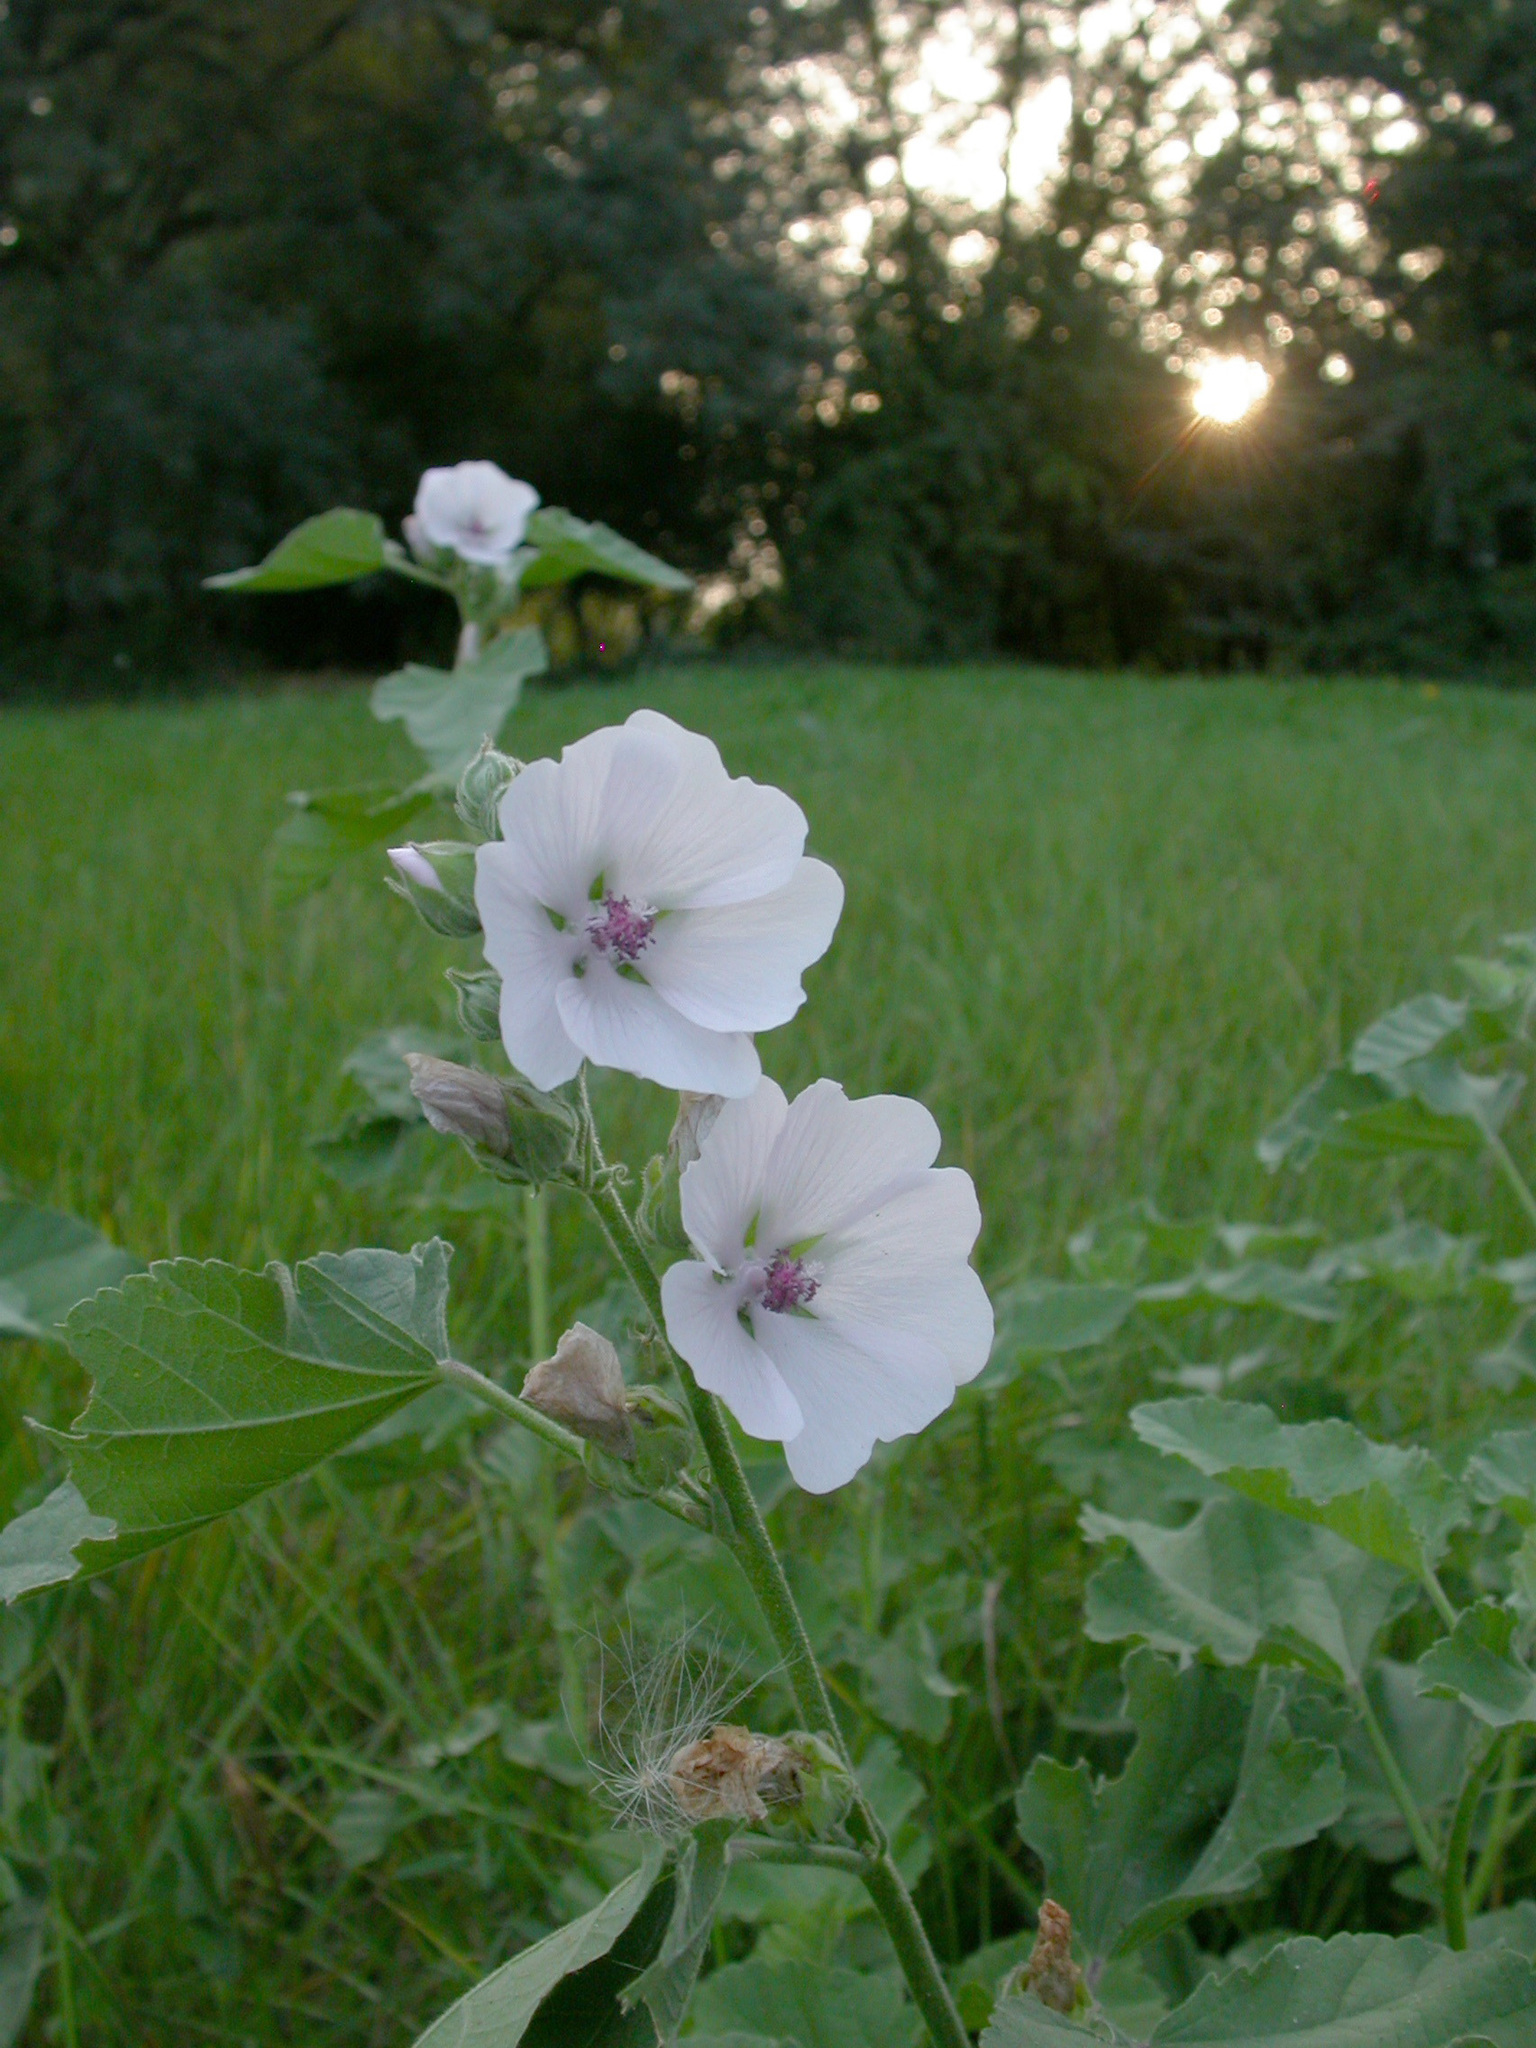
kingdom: Plantae
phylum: Tracheophyta
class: Magnoliopsida
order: Malvales
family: Malvaceae
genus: Althaea
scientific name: Althaea officinalis
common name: Marsh-mallow
